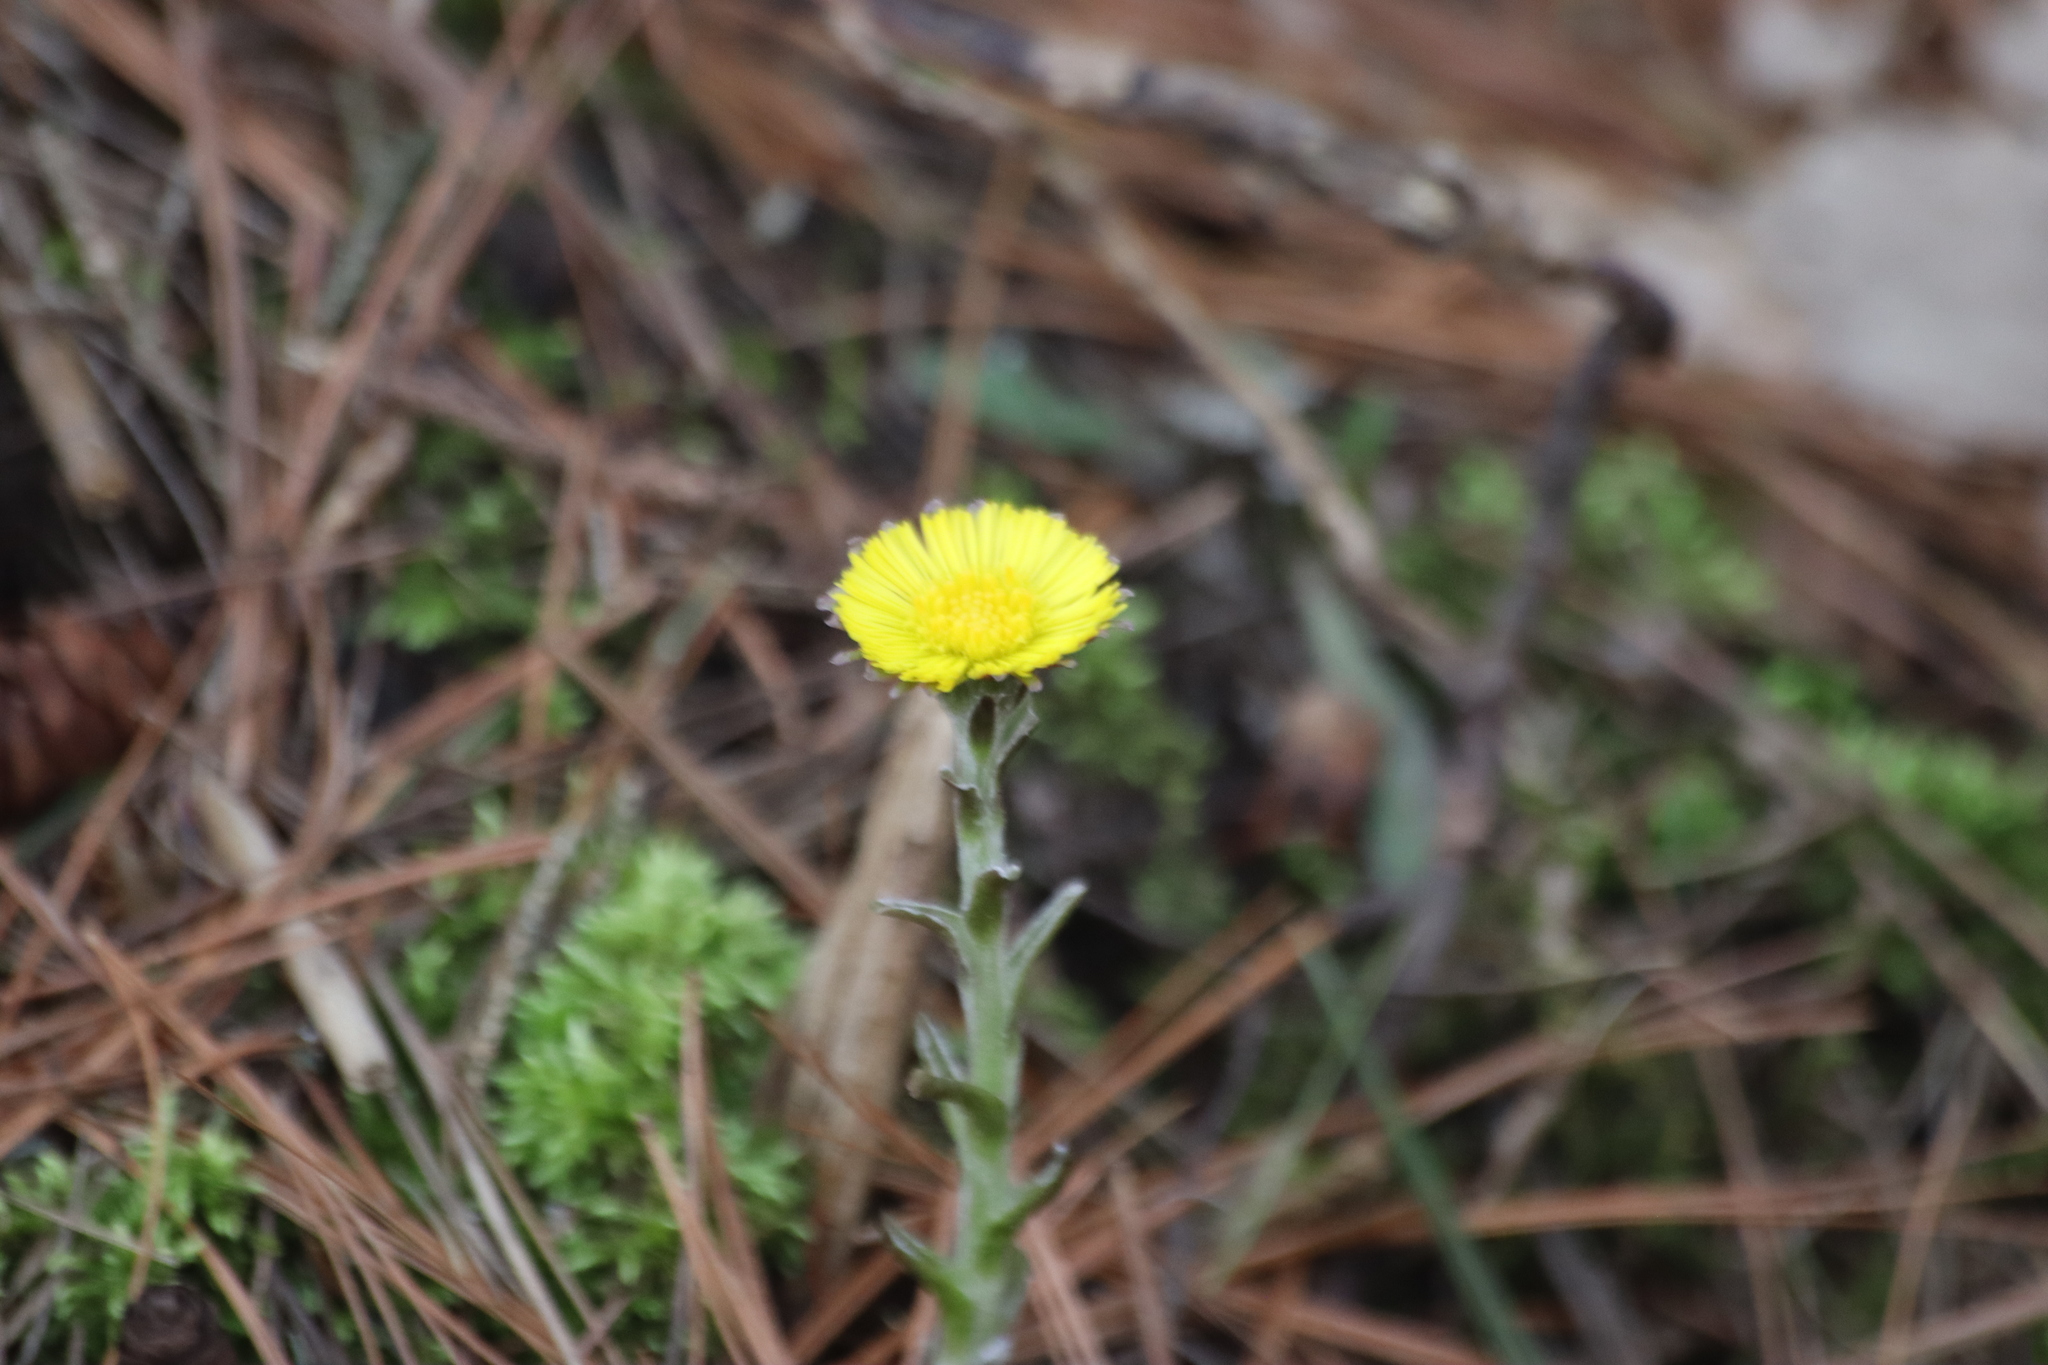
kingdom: Plantae
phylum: Tracheophyta
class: Magnoliopsida
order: Asterales
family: Asteraceae
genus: Tussilago
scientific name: Tussilago farfara
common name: Coltsfoot
